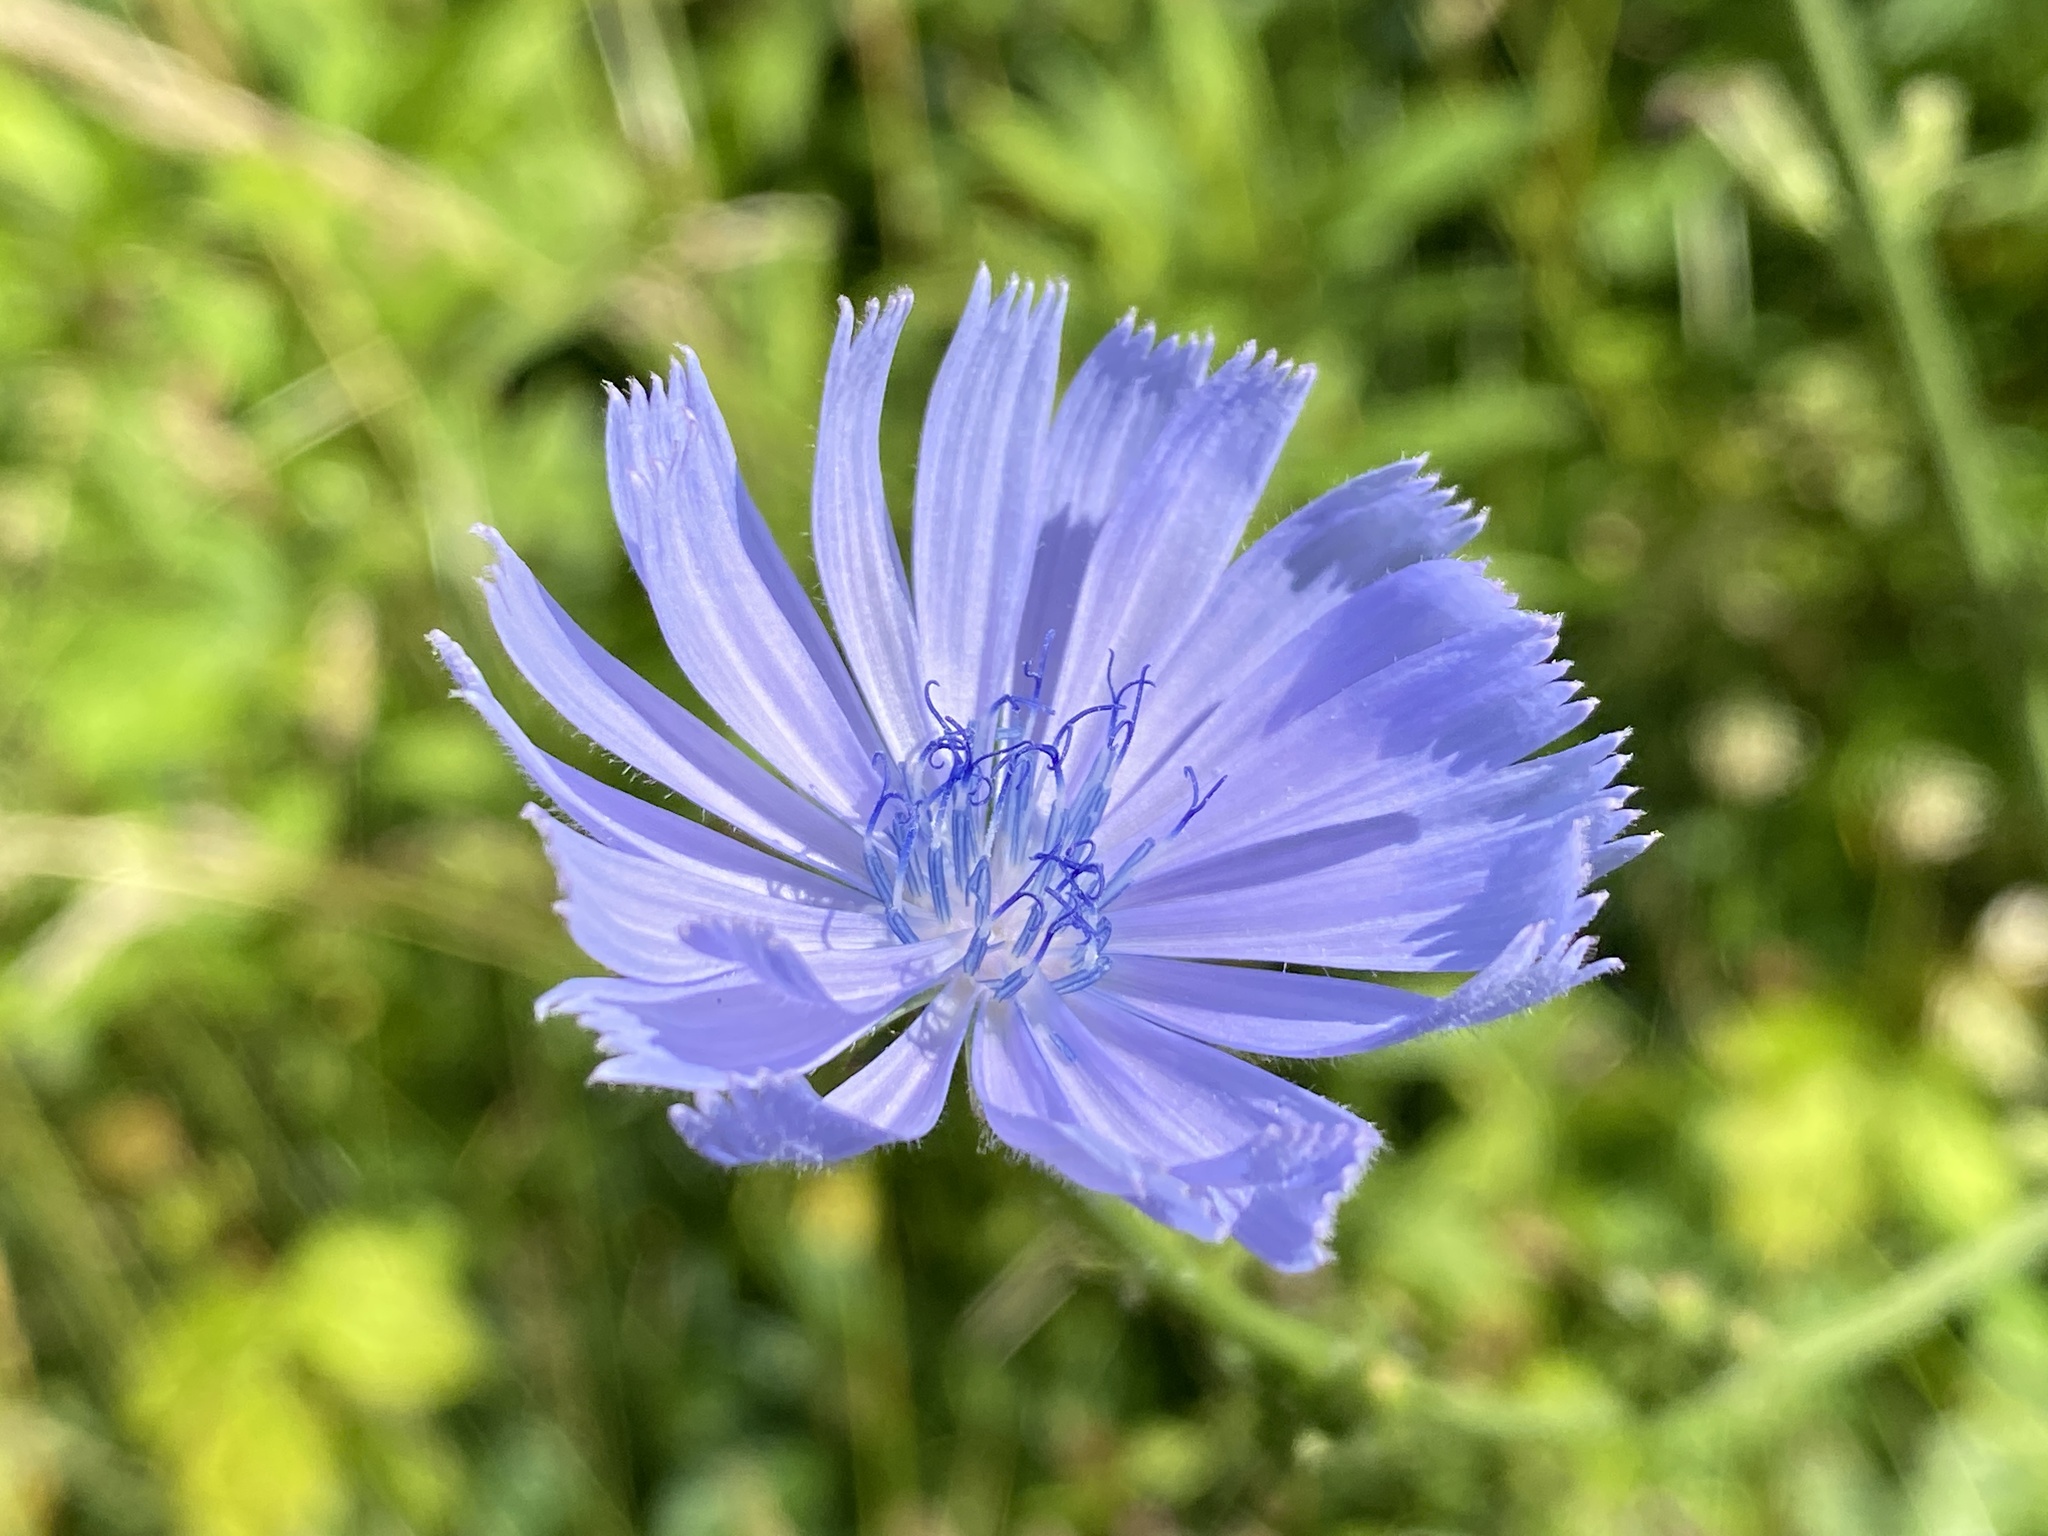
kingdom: Plantae
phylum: Tracheophyta
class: Magnoliopsida
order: Asterales
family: Asteraceae
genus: Cichorium
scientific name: Cichorium intybus
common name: Chicory
